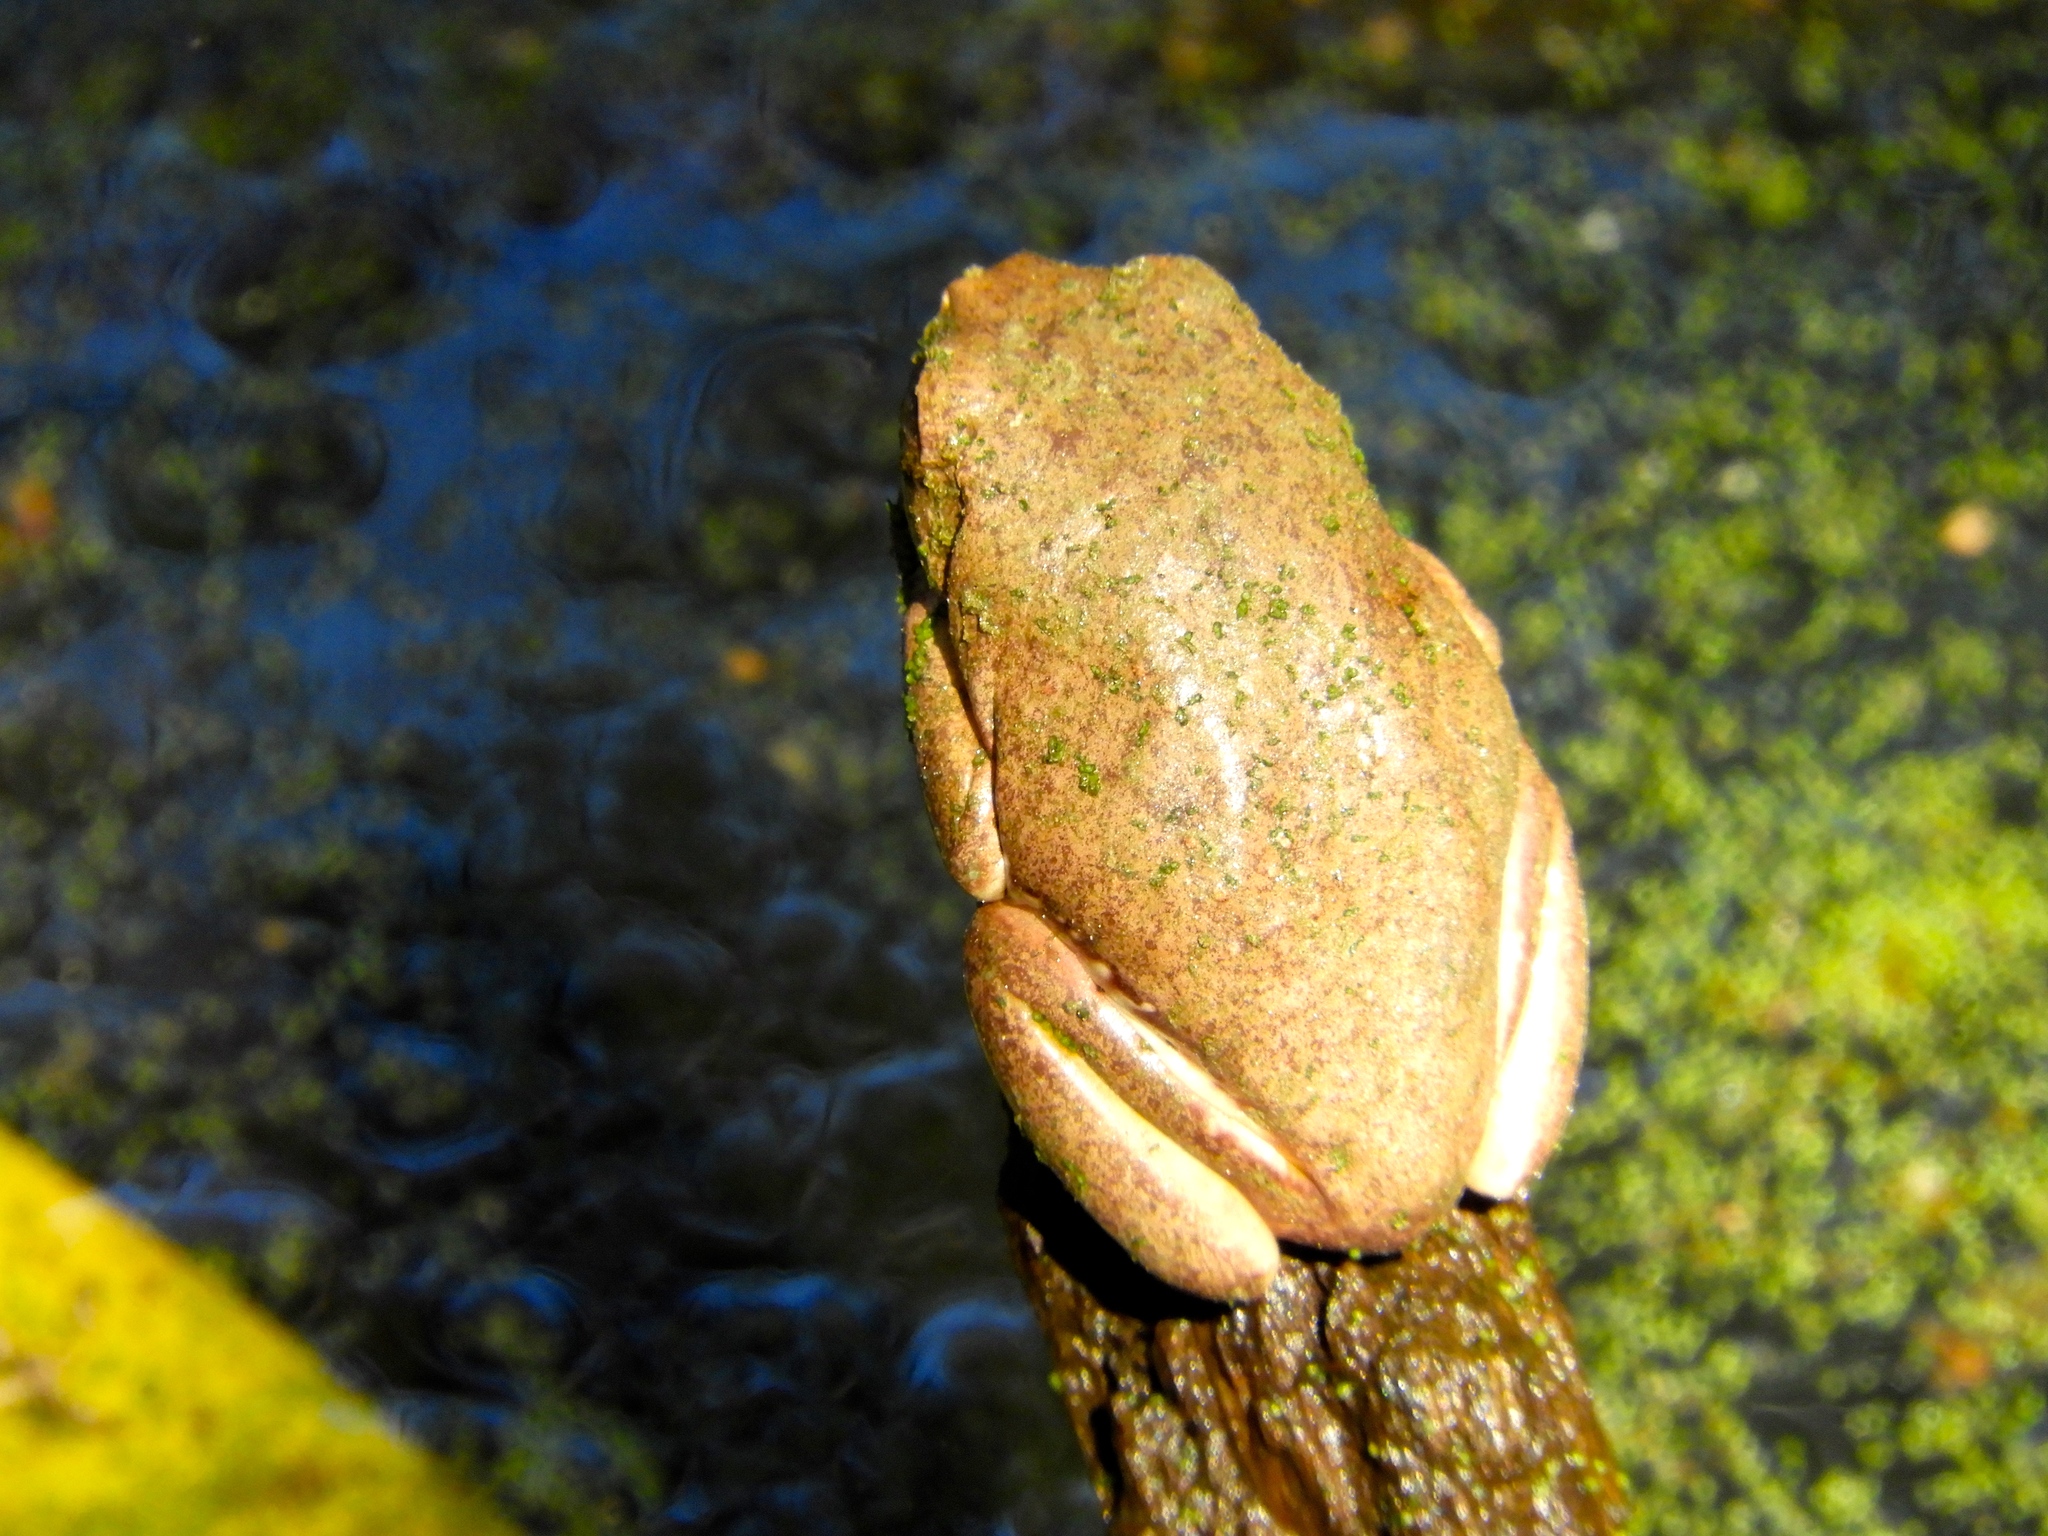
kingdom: Animalia
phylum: Chordata
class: Amphibia
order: Anura
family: Phyllomedusidae
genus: Agalychnis
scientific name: Agalychnis dacnicolor
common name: Mexican giant tree frog
